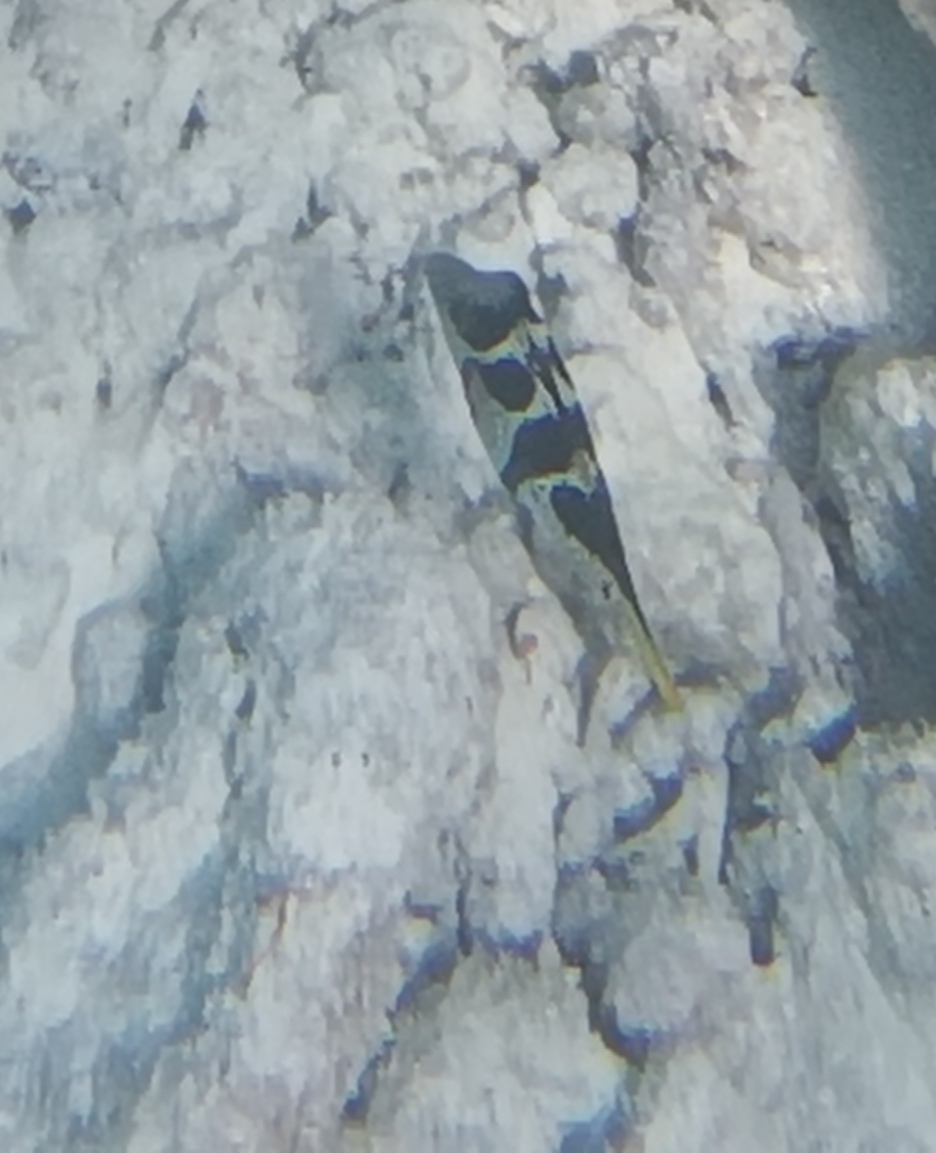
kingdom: Animalia
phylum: Chordata
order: Tetraodontiformes
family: Tetraodontidae
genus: Canthigaster
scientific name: Canthigaster valentini
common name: Banded toby
